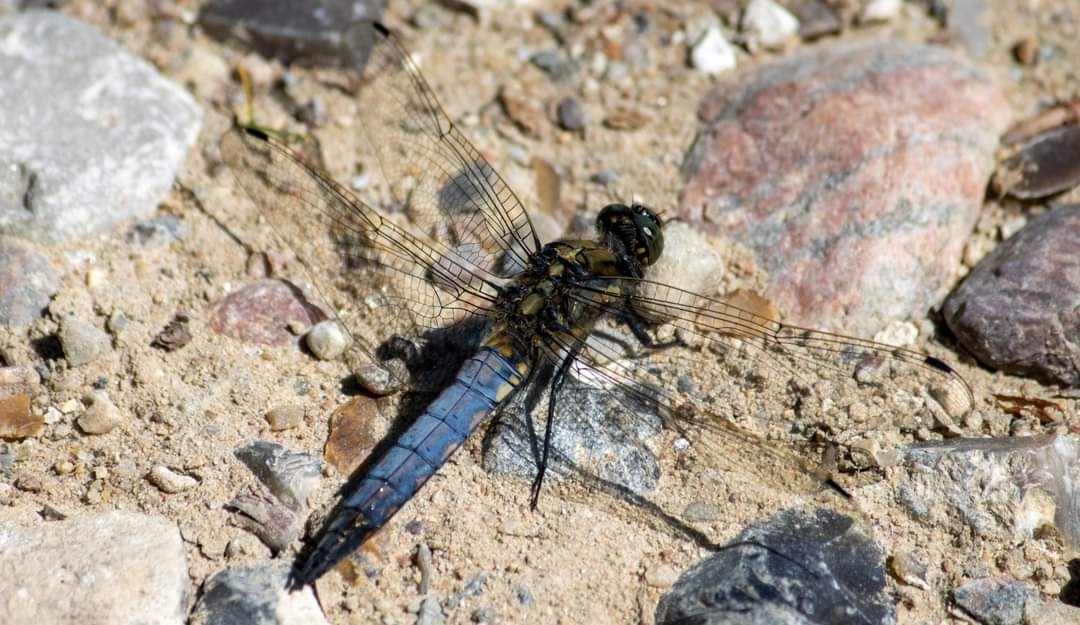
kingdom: Animalia
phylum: Arthropoda
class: Insecta
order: Odonata
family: Libellulidae
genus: Orthetrum
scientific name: Orthetrum cancellatum
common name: Black-tailed skimmer
